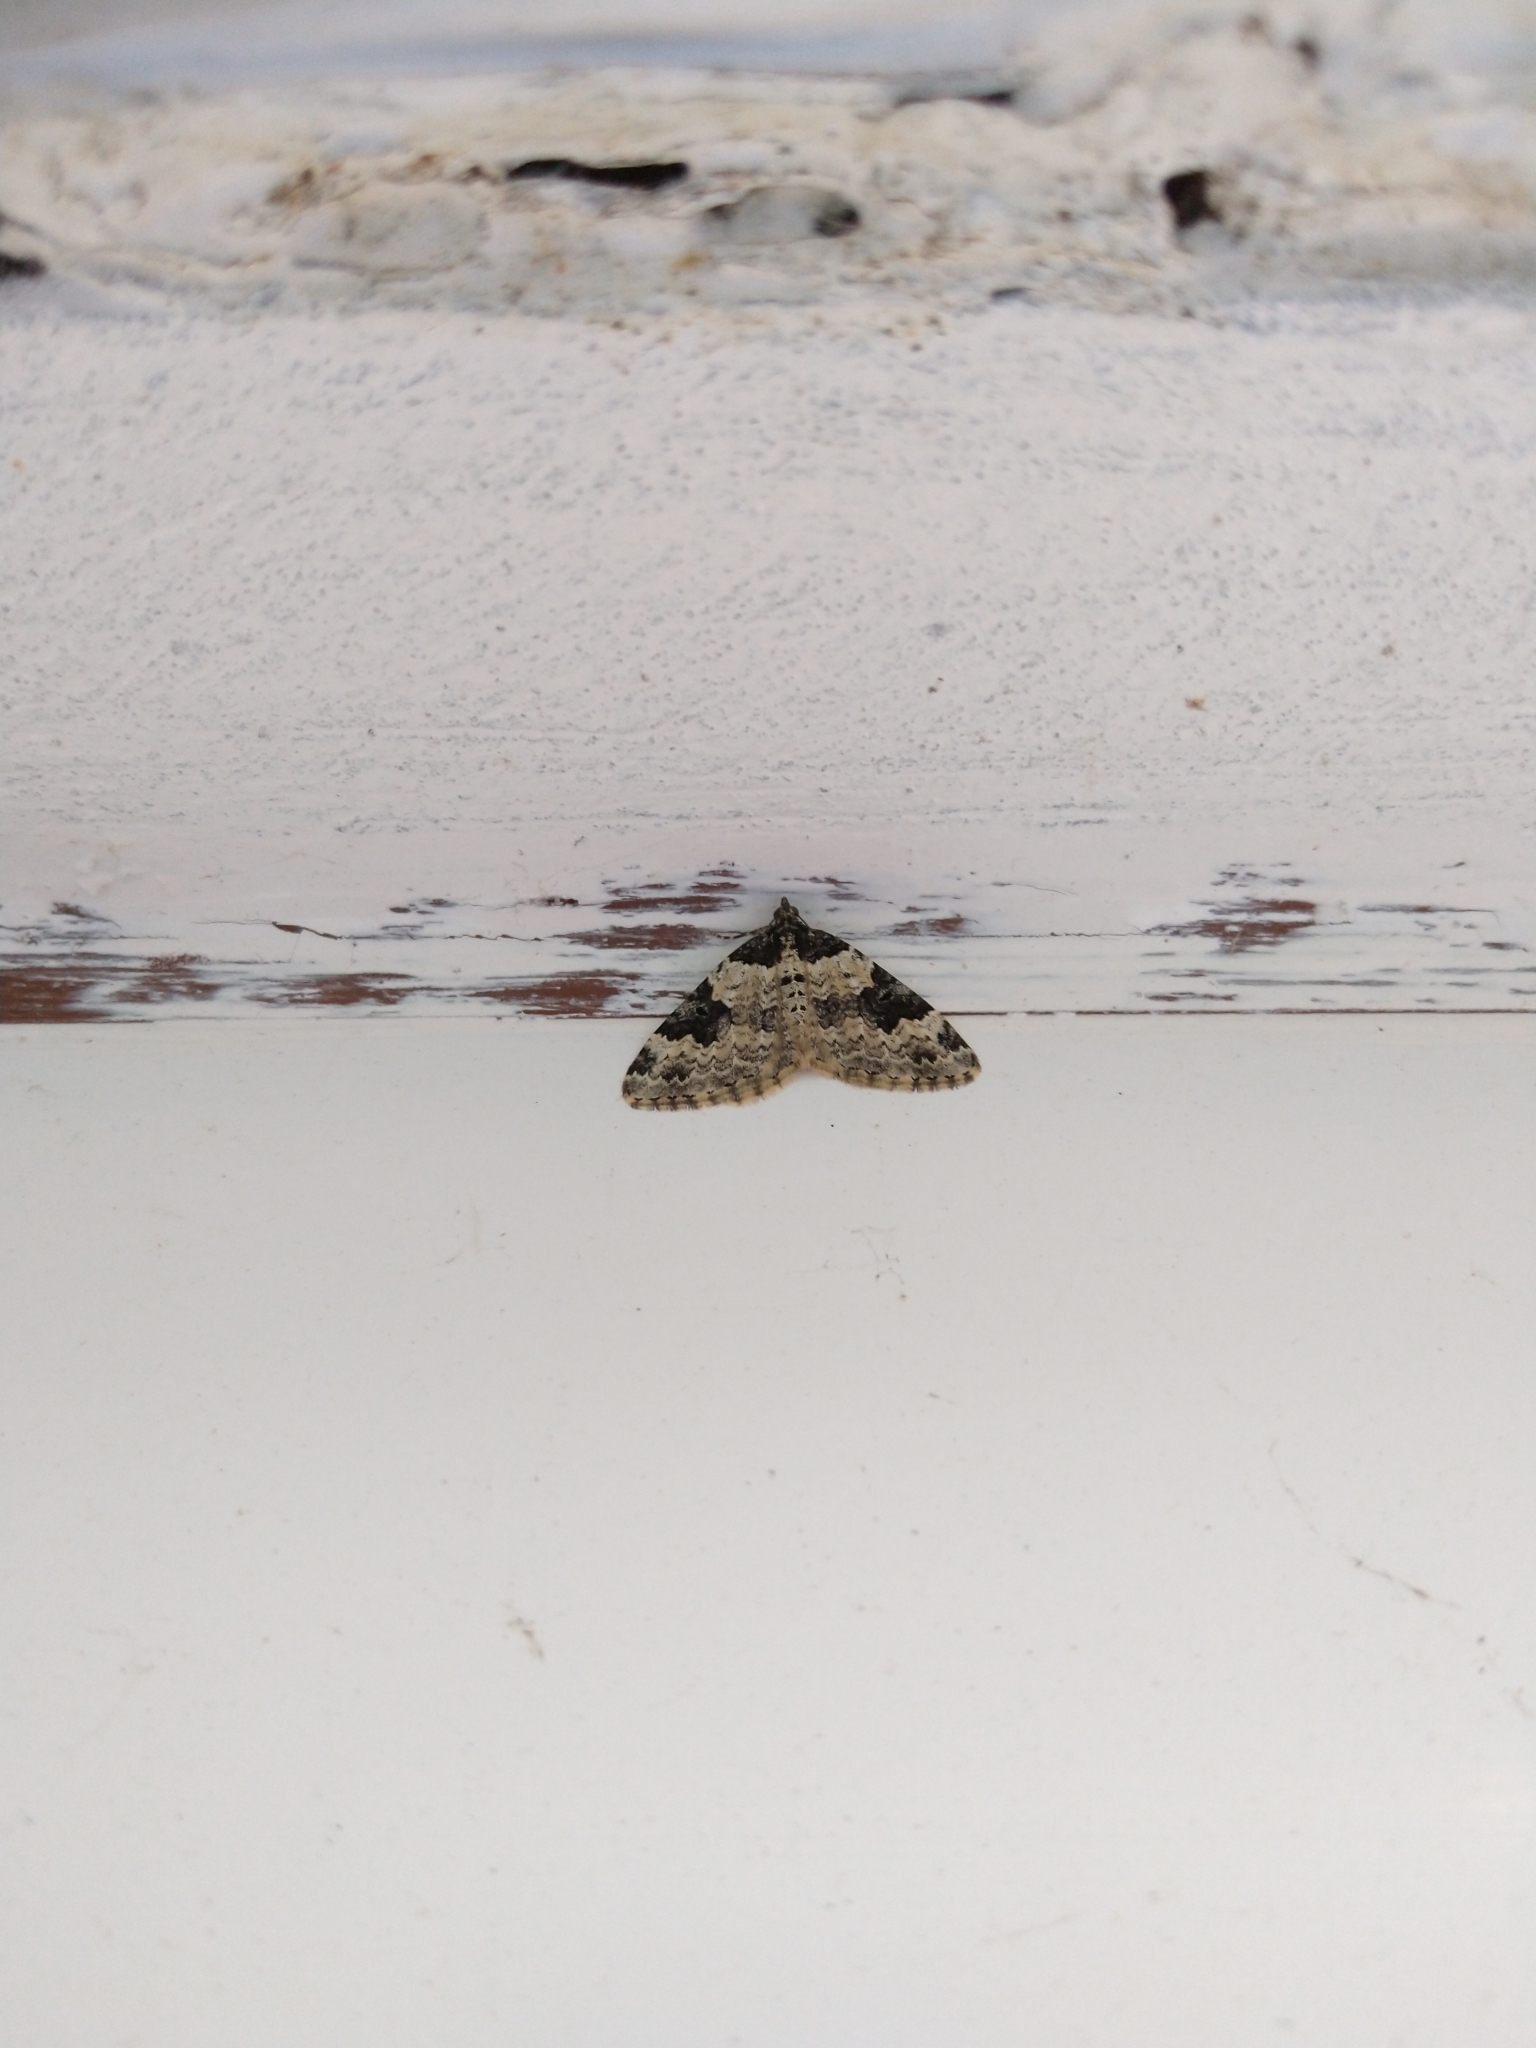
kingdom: Animalia
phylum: Arthropoda
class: Insecta
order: Lepidoptera
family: Geometridae
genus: Xanthorhoe
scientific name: Xanthorhoe fluctuata
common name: Garden carpet
